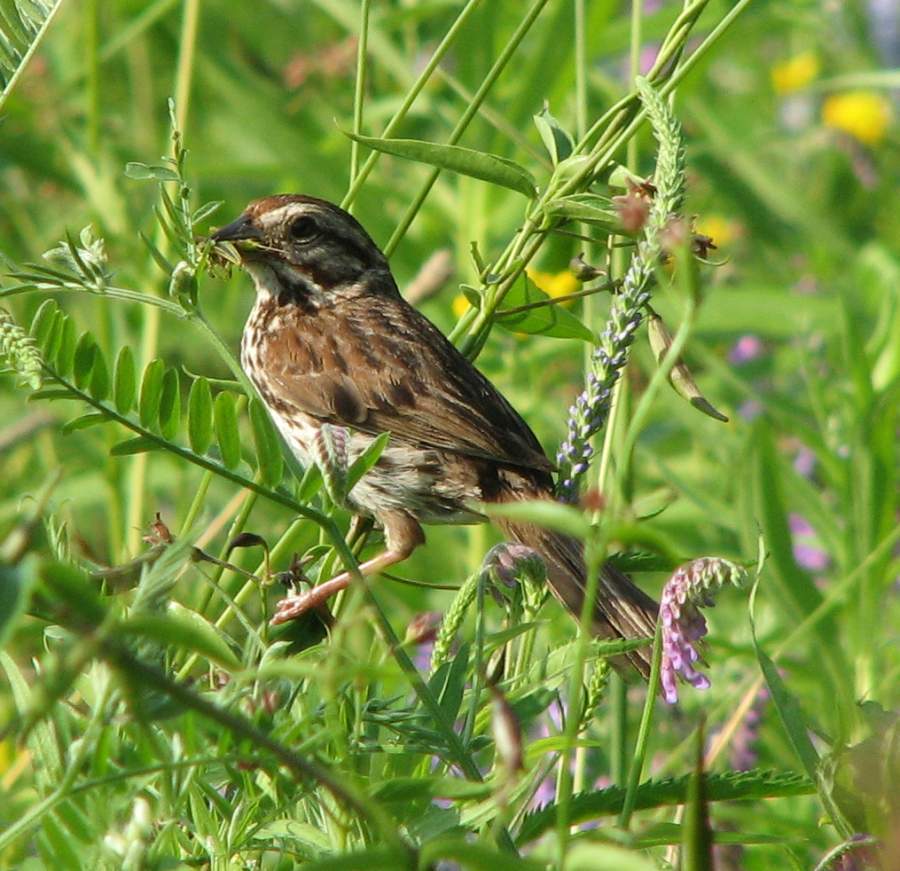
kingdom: Animalia
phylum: Chordata
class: Aves
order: Passeriformes
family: Passerellidae
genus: Melospiza
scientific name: Melospiza melodia
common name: Song sparrow
